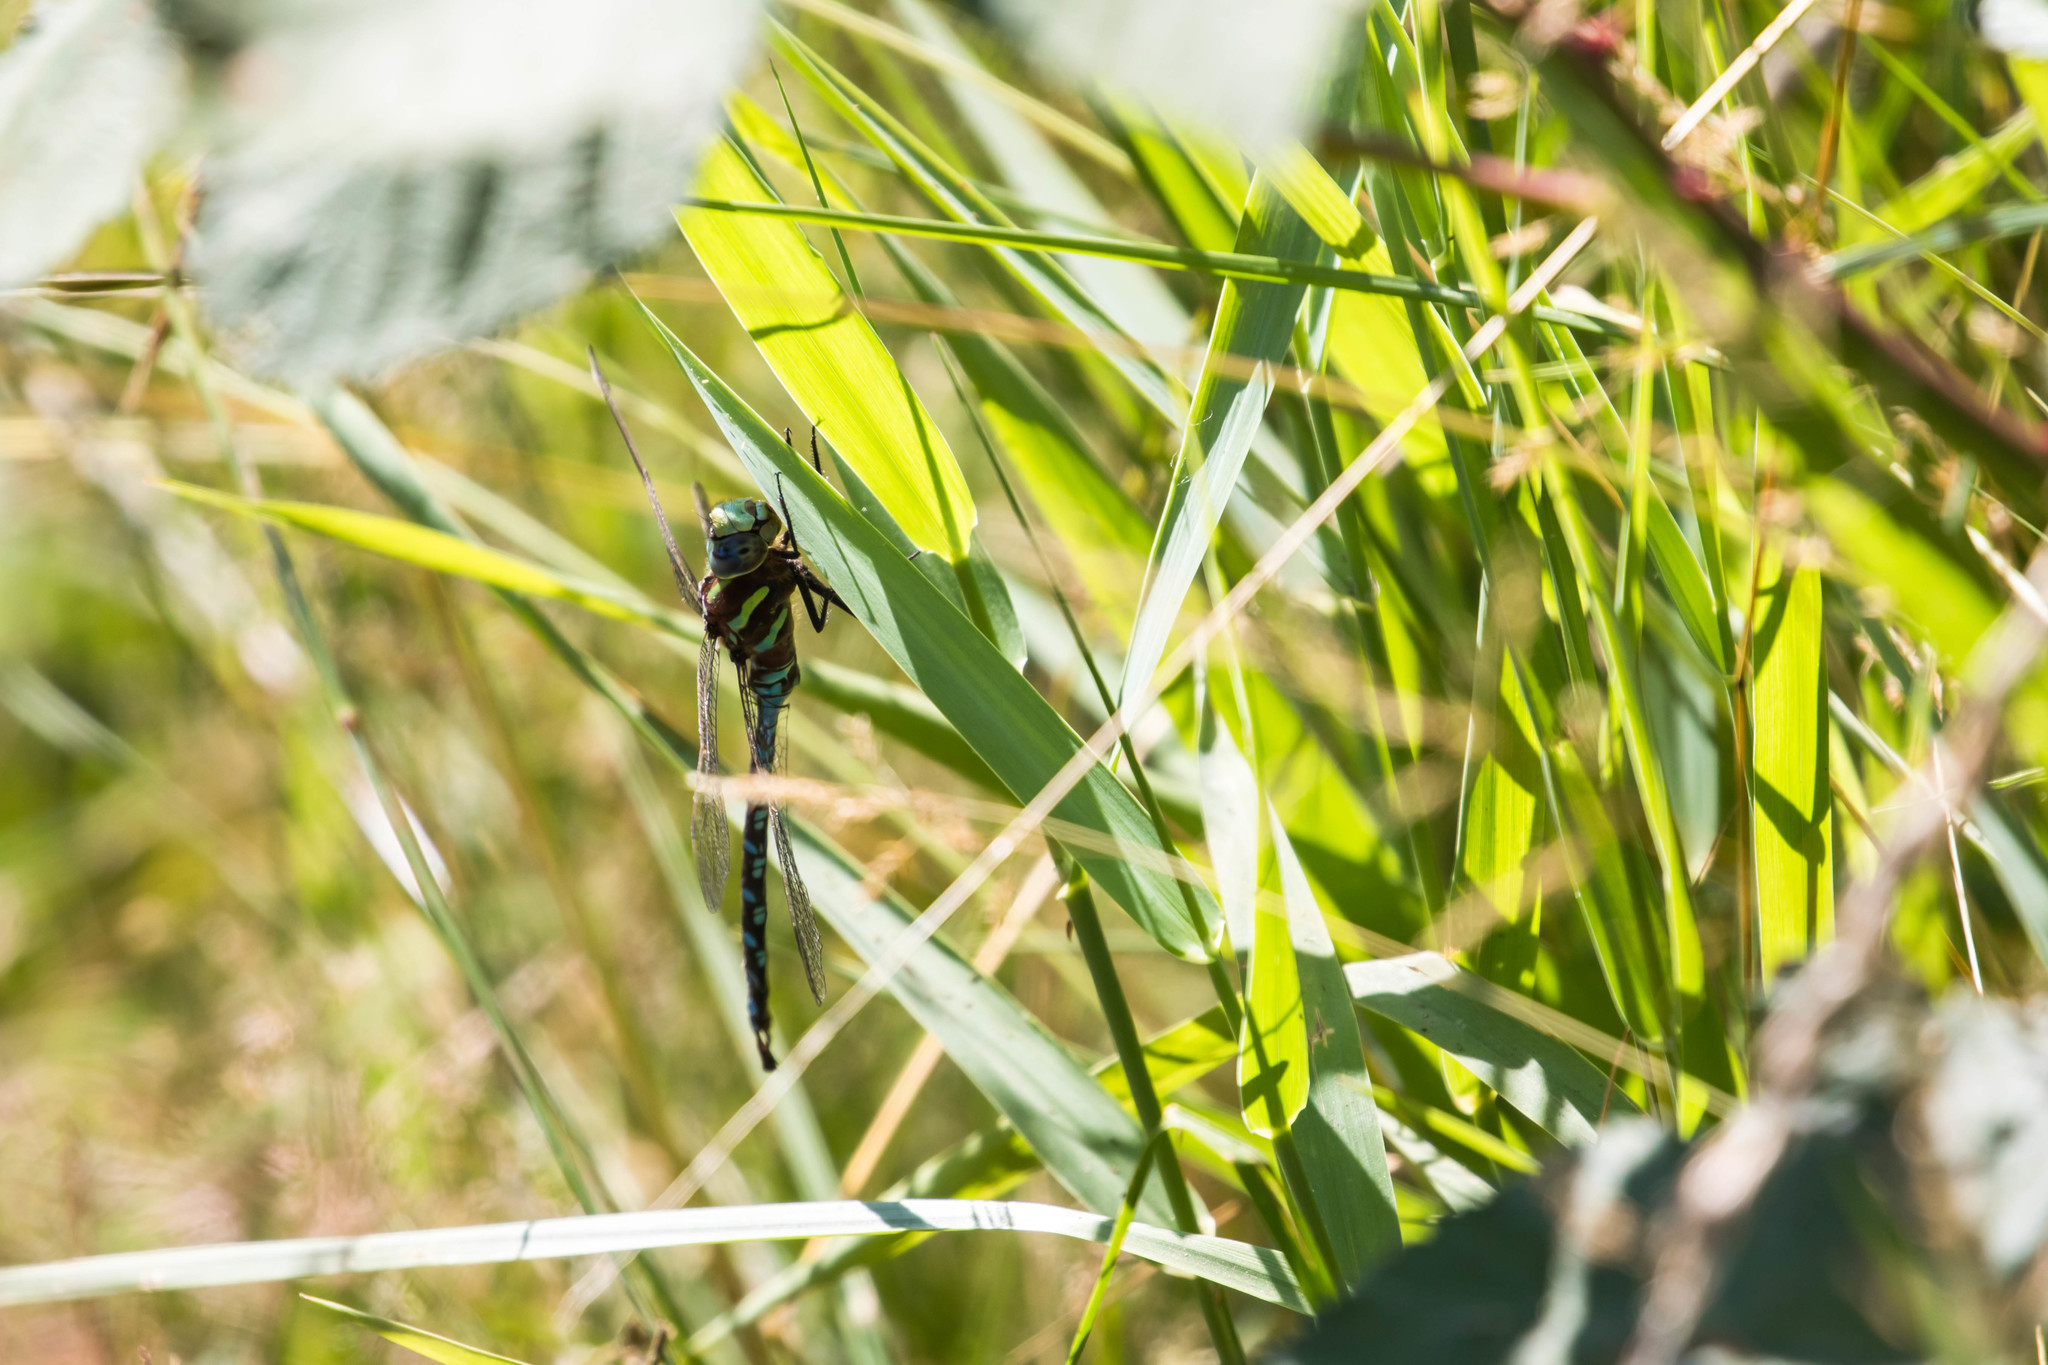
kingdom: Animalia
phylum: Arthropoda
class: Insecta
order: Odonata
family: Aeshnidae
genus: Aeshna
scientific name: Aeshna constricta
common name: Lance-tipped darner
